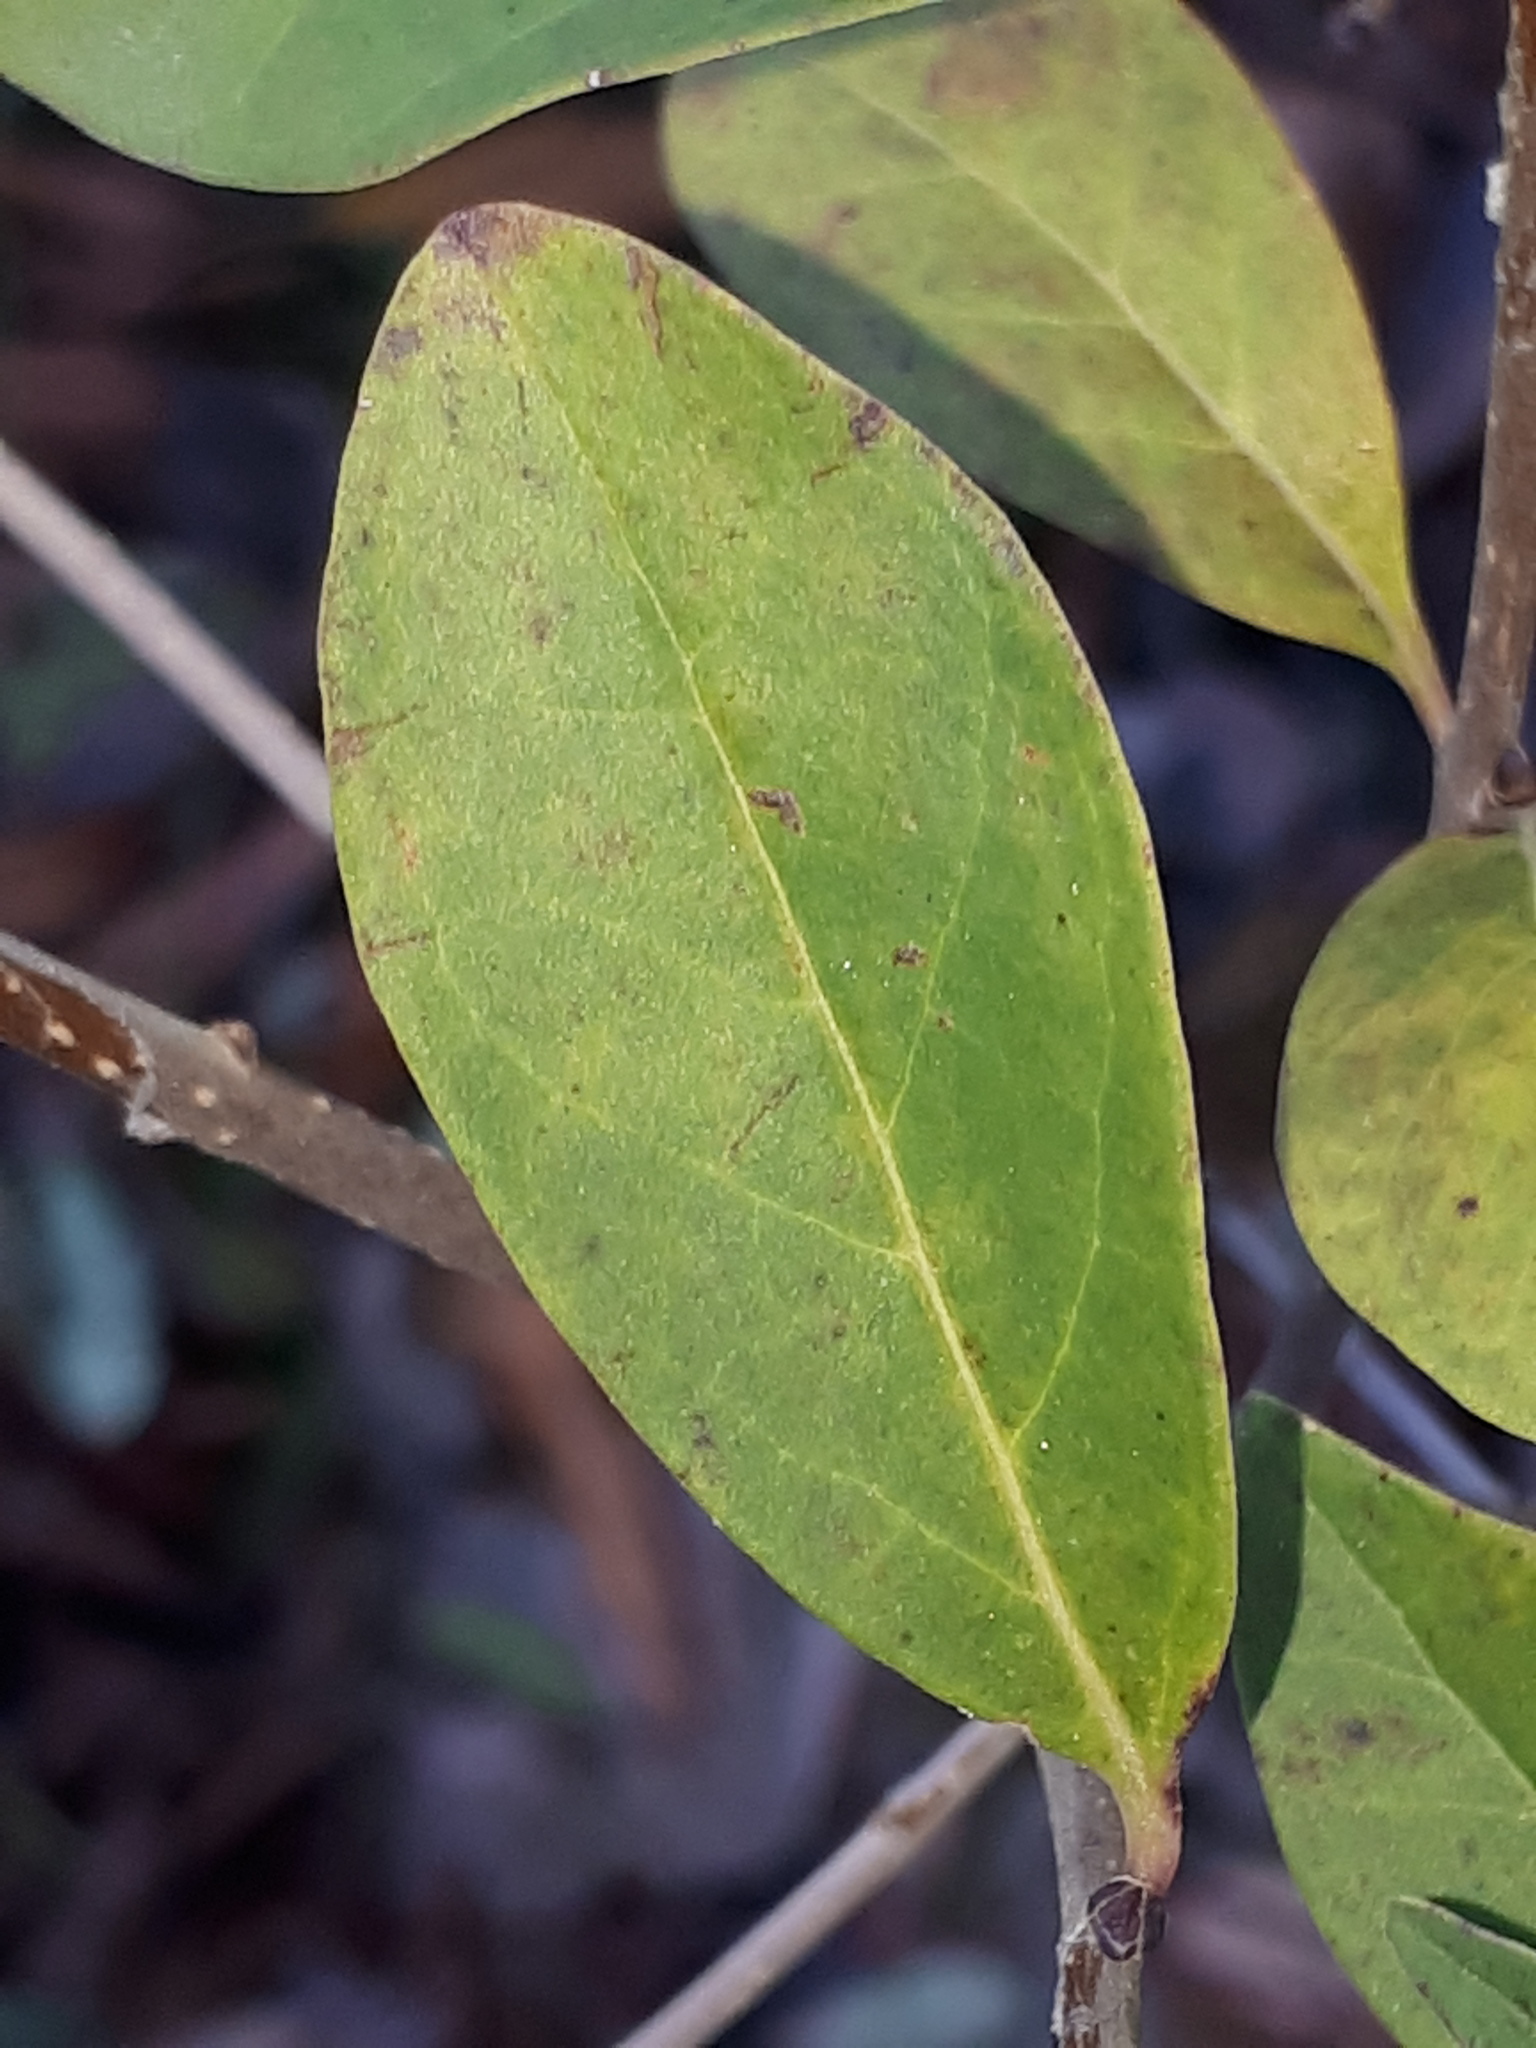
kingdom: Plantae
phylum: Tracheophyta
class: Magnoliopsida
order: Lamiales
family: Oleaceae
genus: Ligustrum
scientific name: Ligustrum vulgare
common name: Wild privet
